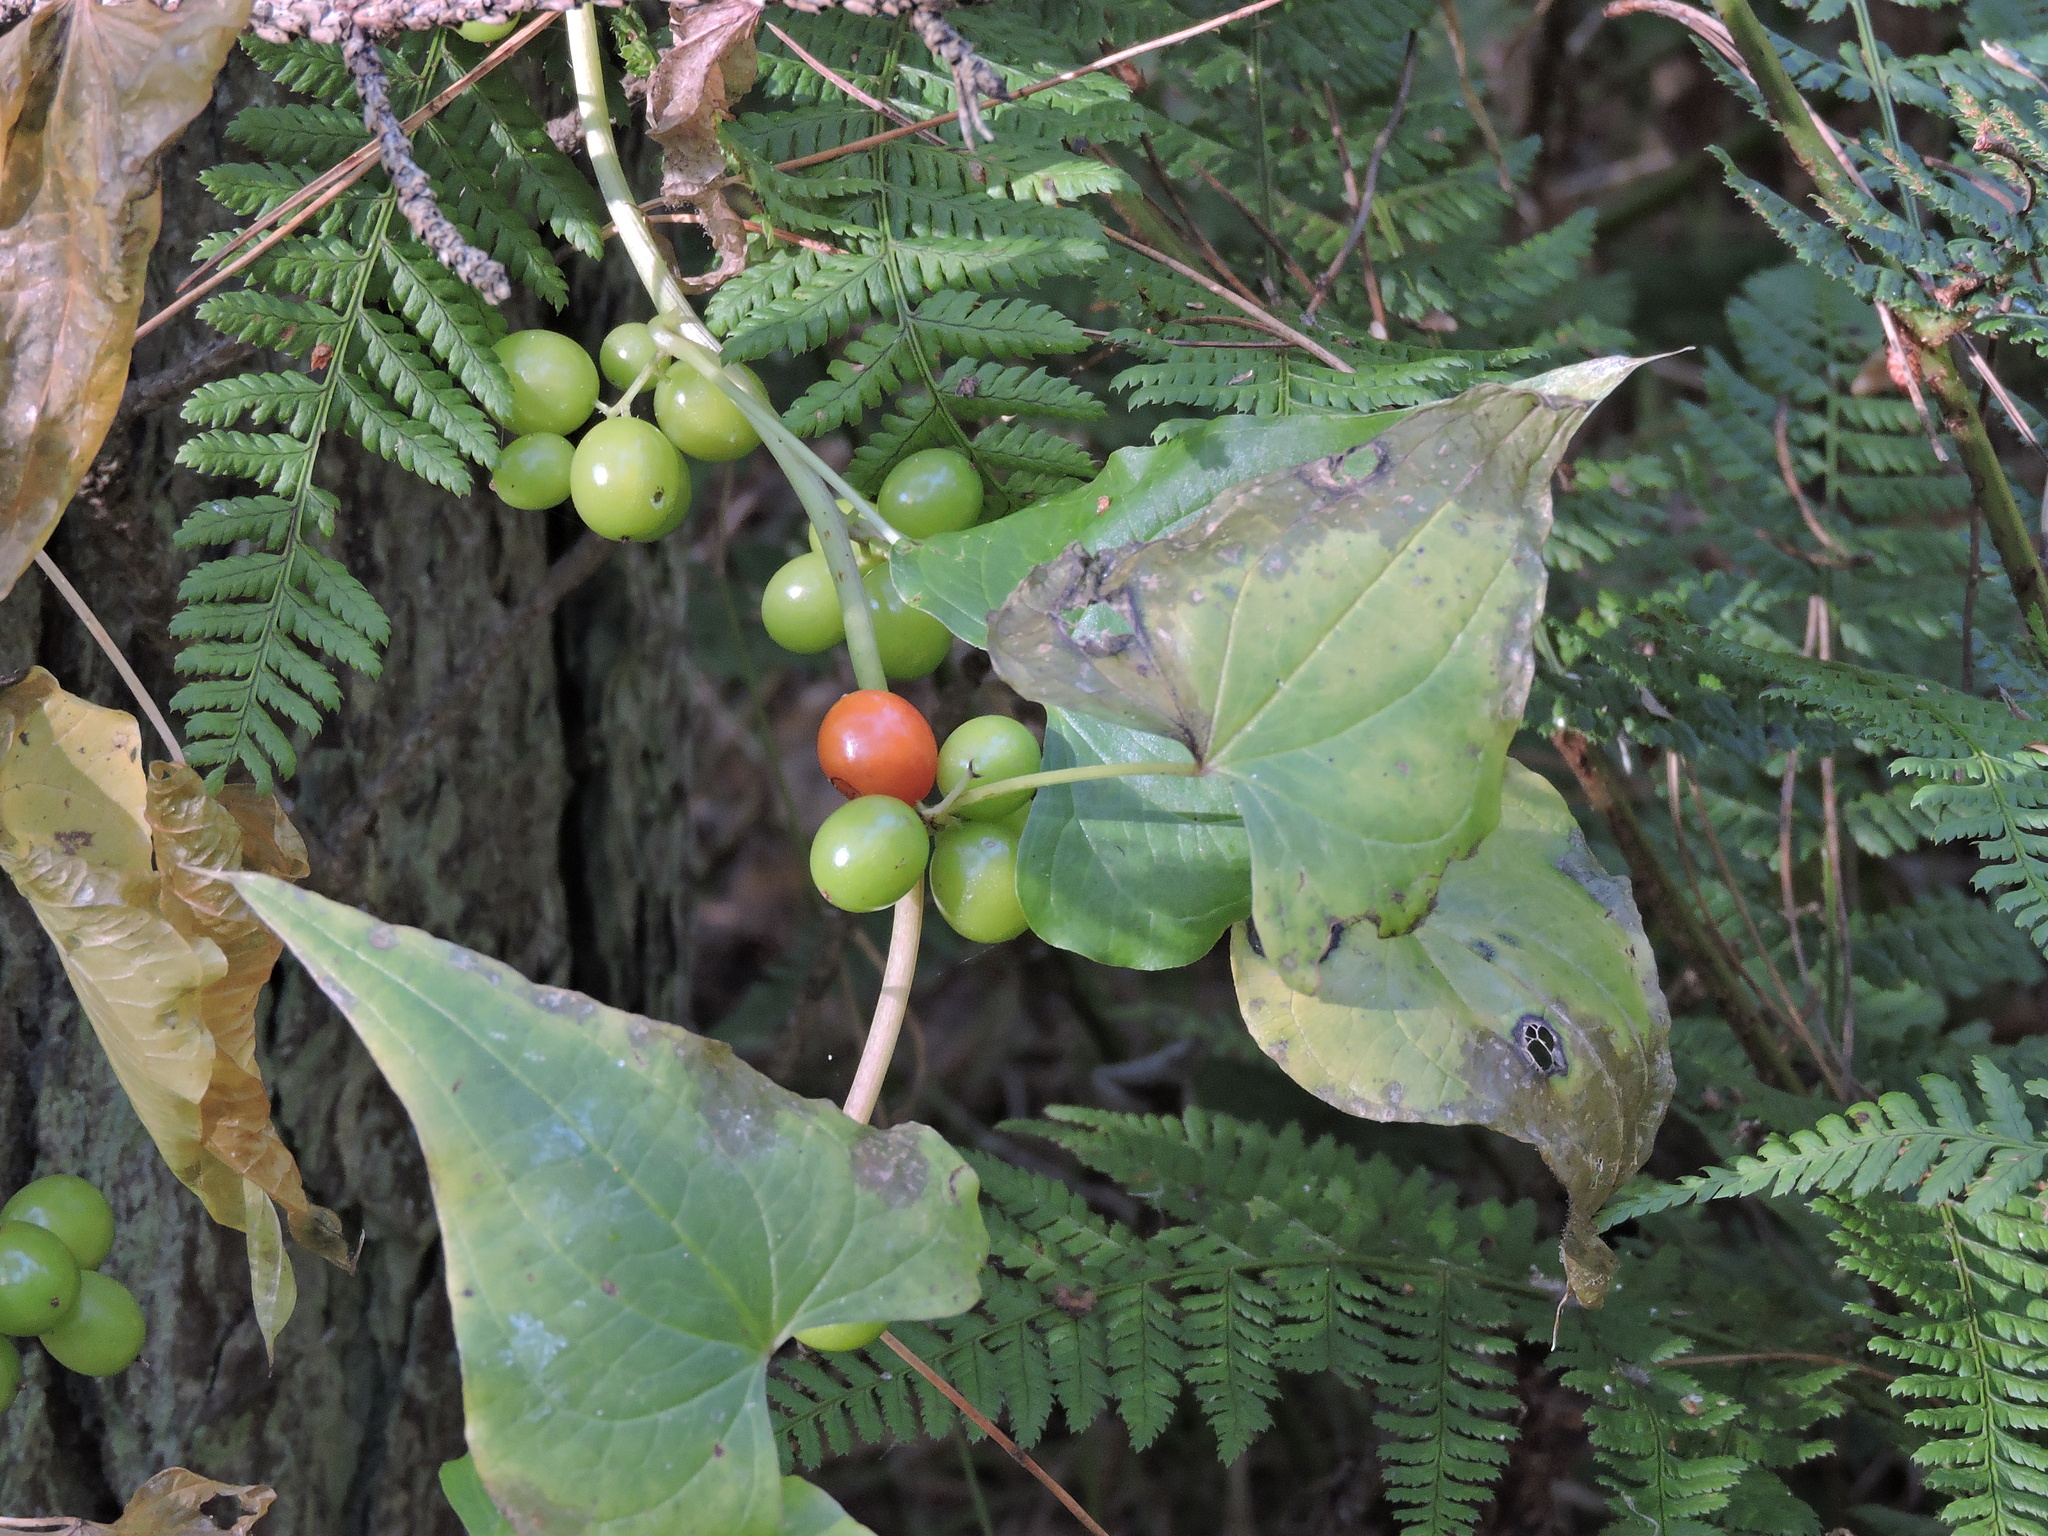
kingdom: Plantae
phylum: Tracheophyta
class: Liliopsida
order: Dioscoreales
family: Dioscoreaceae
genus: Dioscorea
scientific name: Dioscorea communis
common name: Black-bindweed
